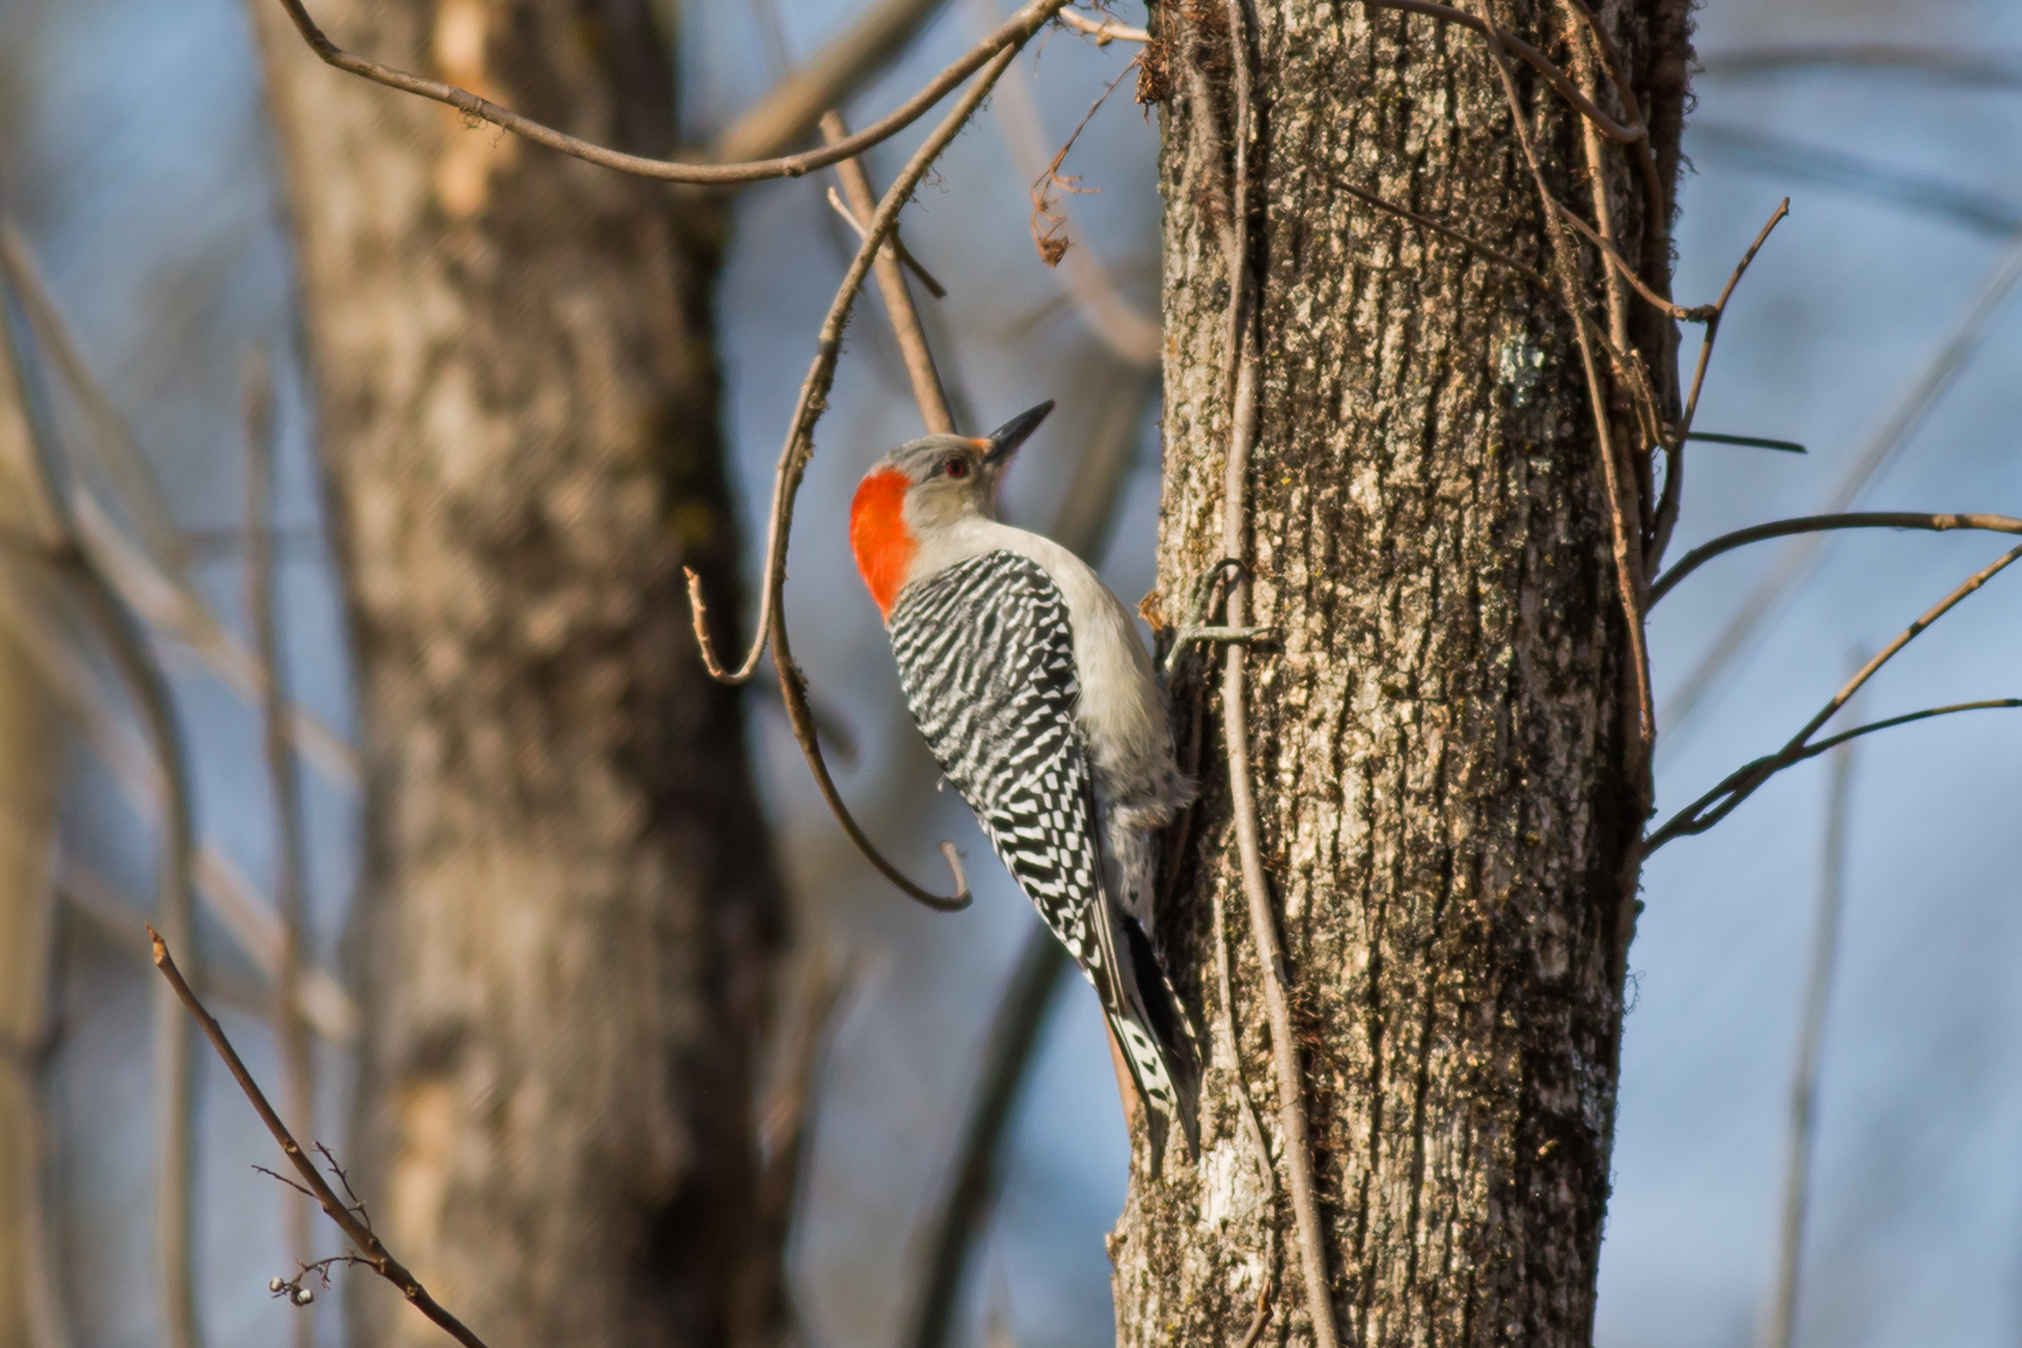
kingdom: Animalia
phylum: Chordata
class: Aves
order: Piciformes
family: Picidae
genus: Melanerpes
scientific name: Melanerpes carolinus
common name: Red-bellied woodpecker
